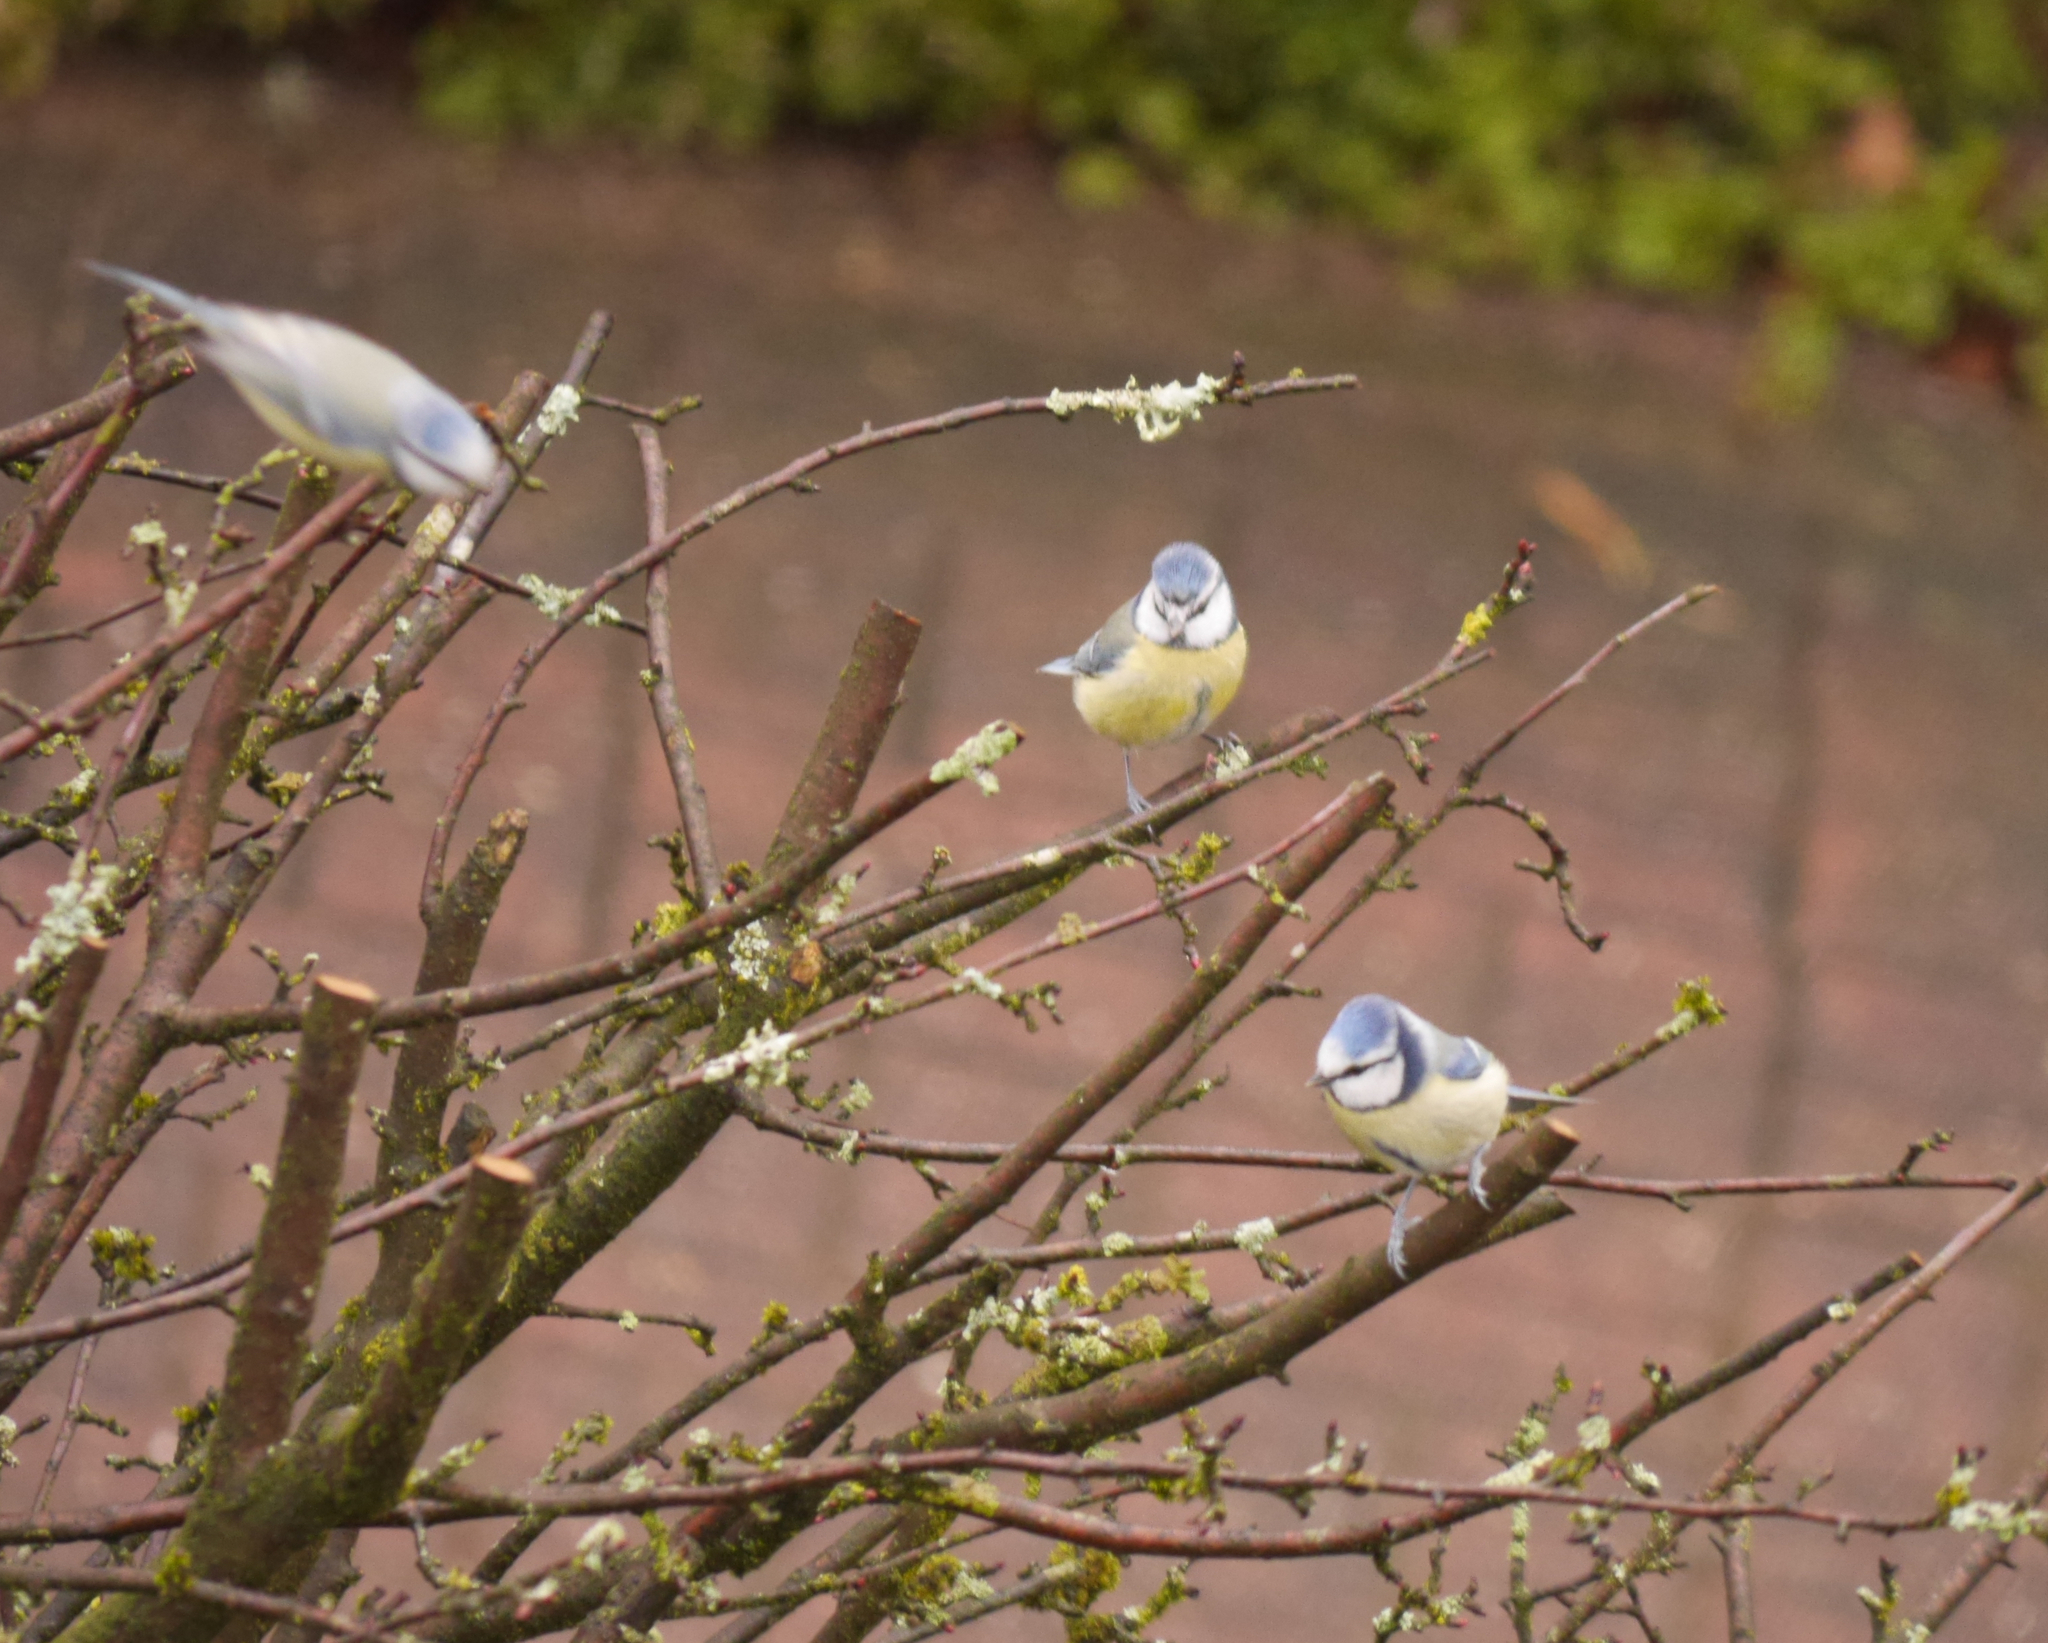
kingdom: Animalia
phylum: Chordata
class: Aves
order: Passeriformes
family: Paridae
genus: Cyanistes
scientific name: Cyanistes caeruleus
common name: Eurasian blue tit
